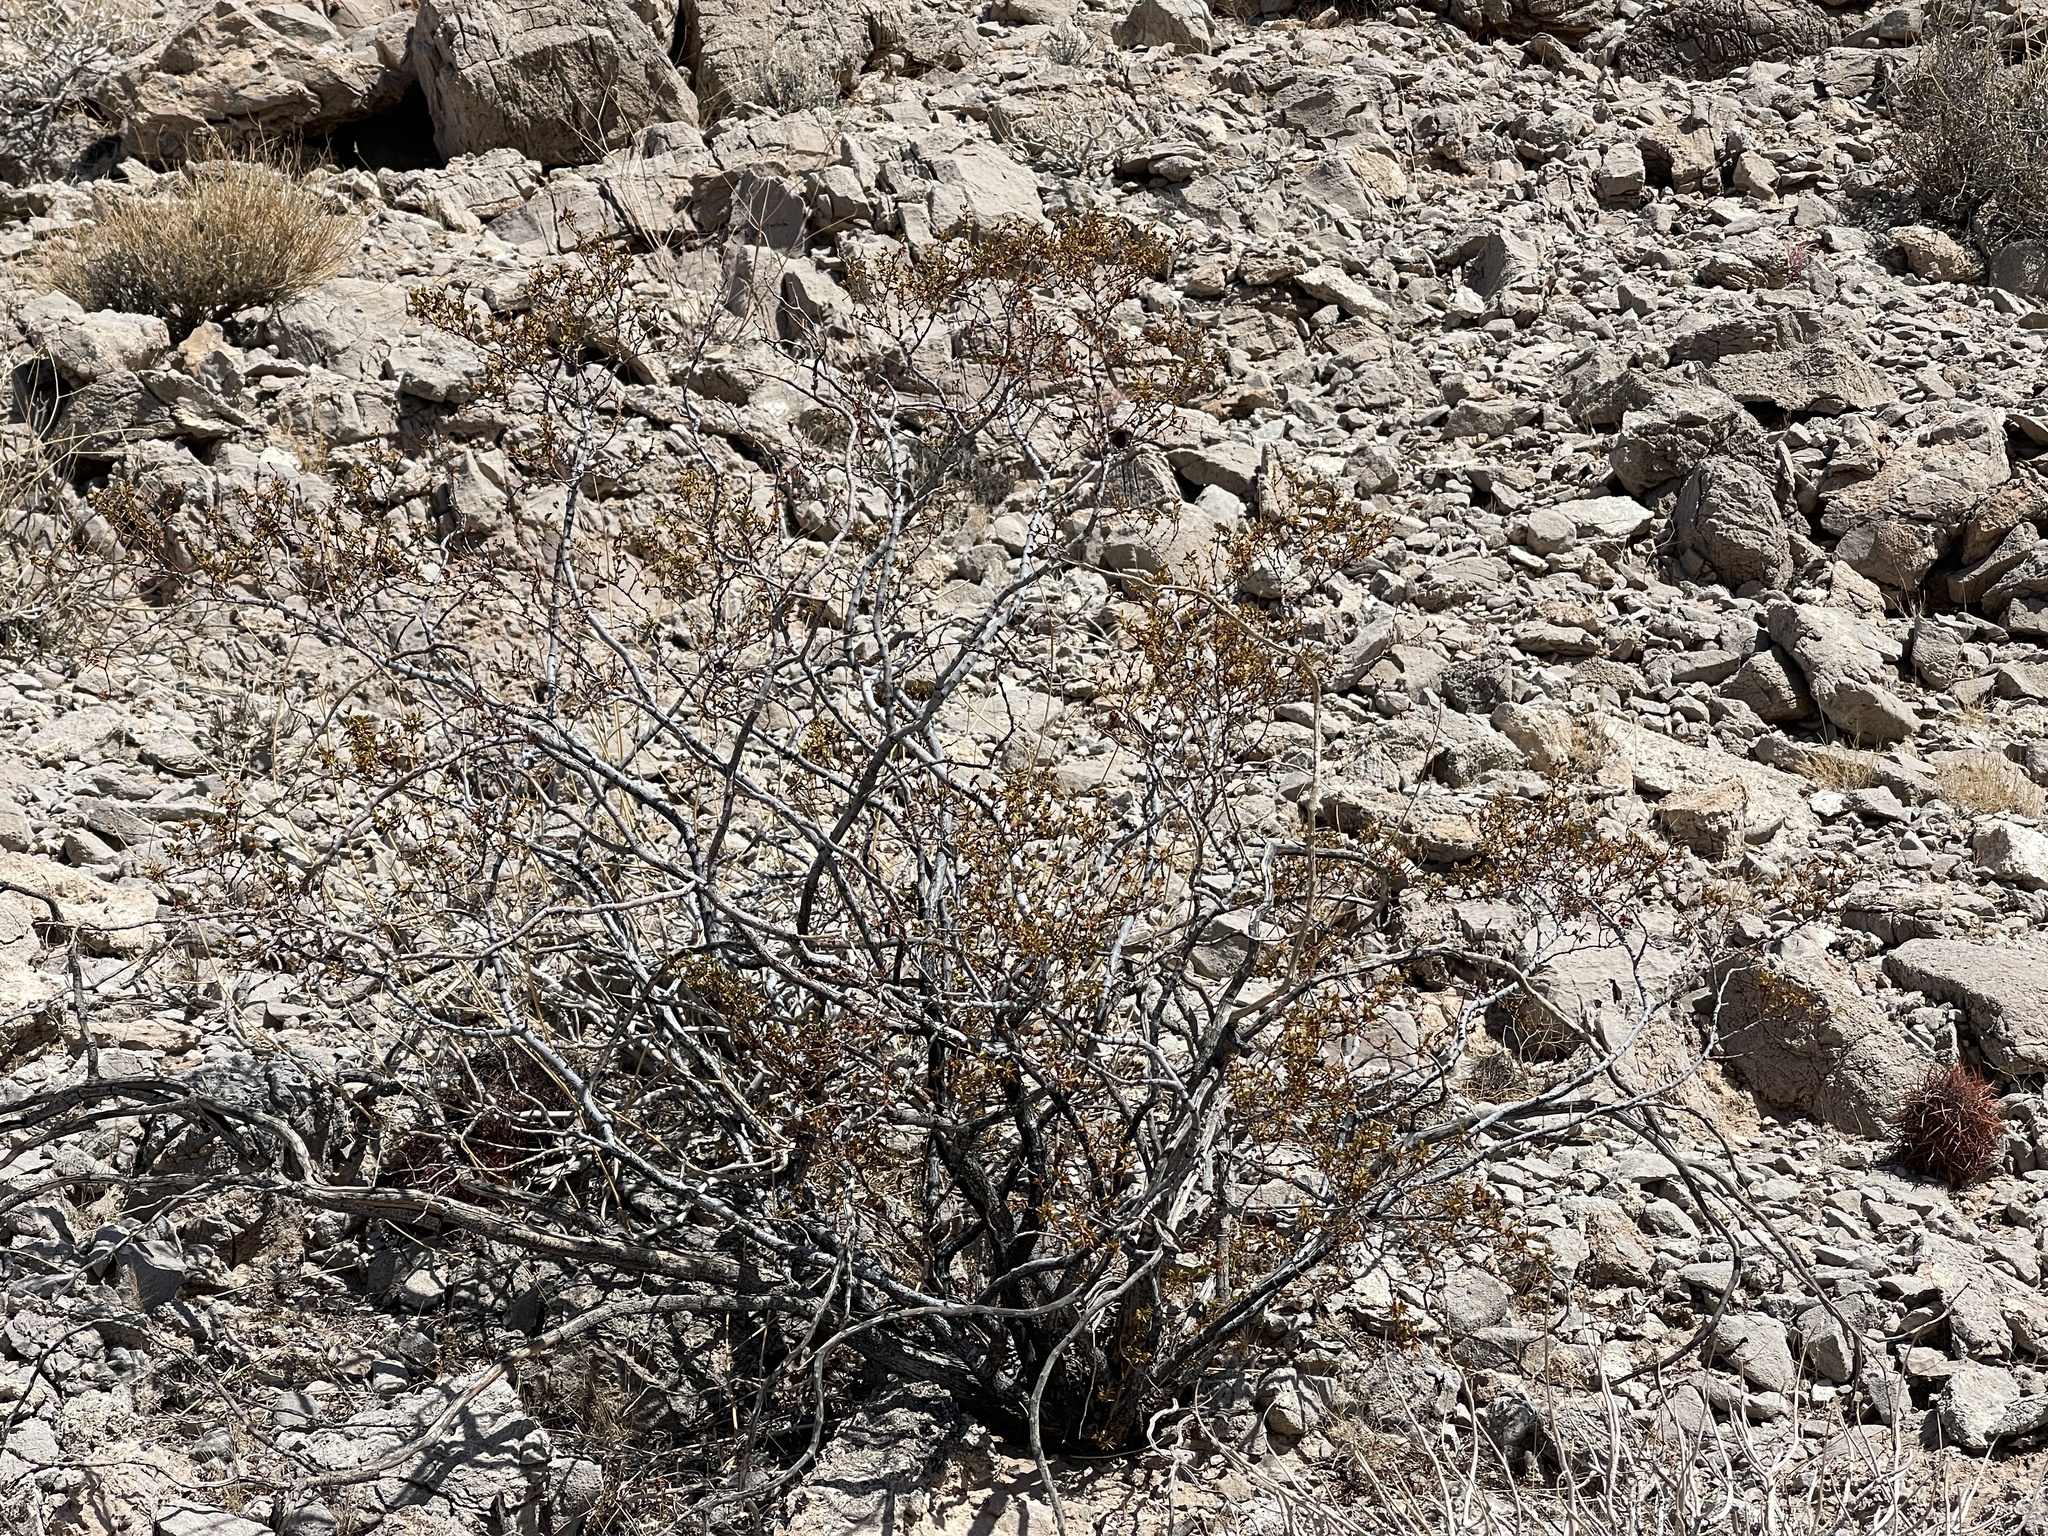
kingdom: Plantae
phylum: Tracheophyta
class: Magnoliopsida
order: Zygophyllales
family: Zygophyllaceae
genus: Larrea
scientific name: Larrea tridentata
